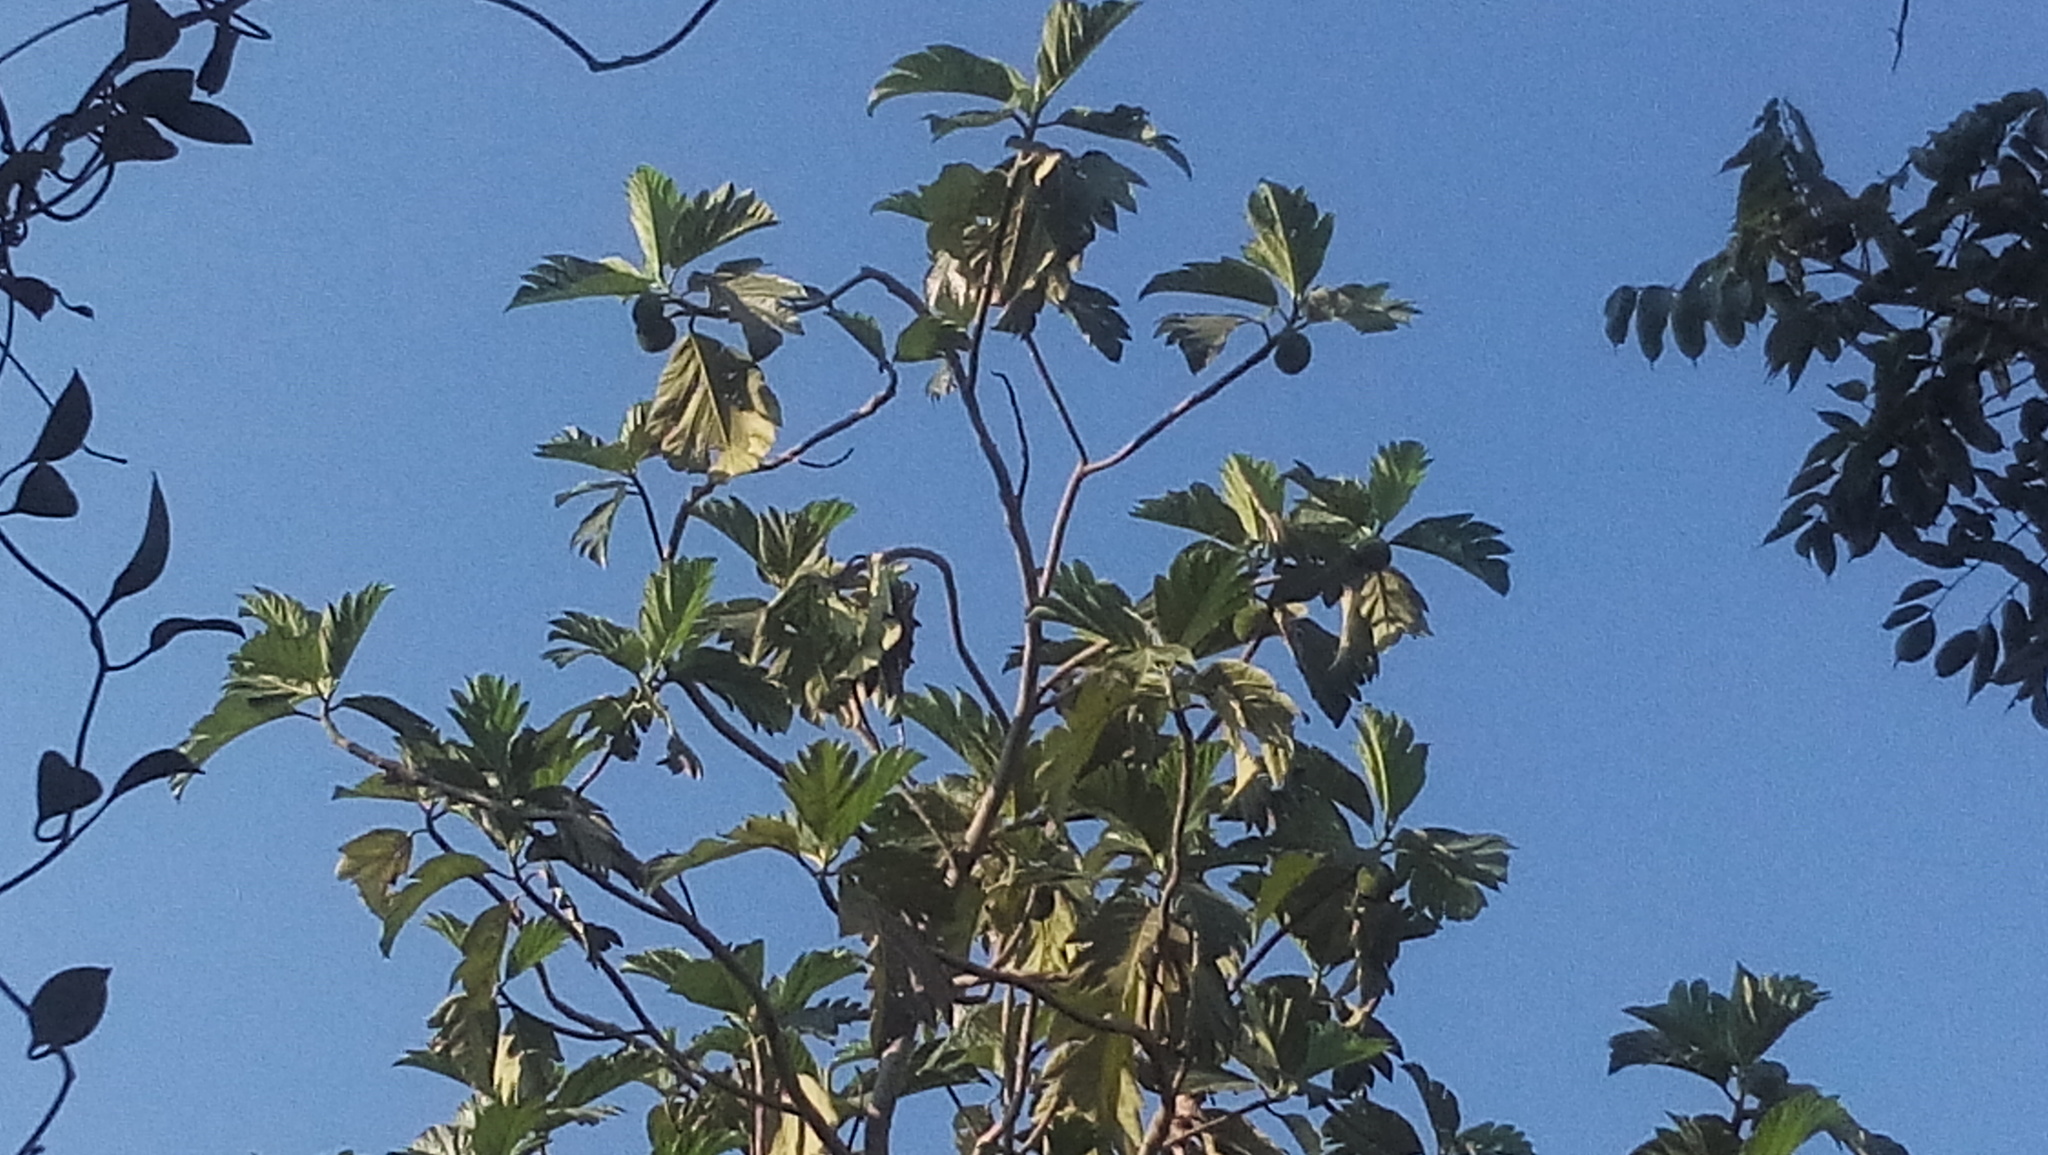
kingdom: Plantae
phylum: Tracheophyta
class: Magnoliopsida
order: Rosales
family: Moraceae
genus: Artocarpus
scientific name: Artocarpus altilis
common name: Breadfruit
